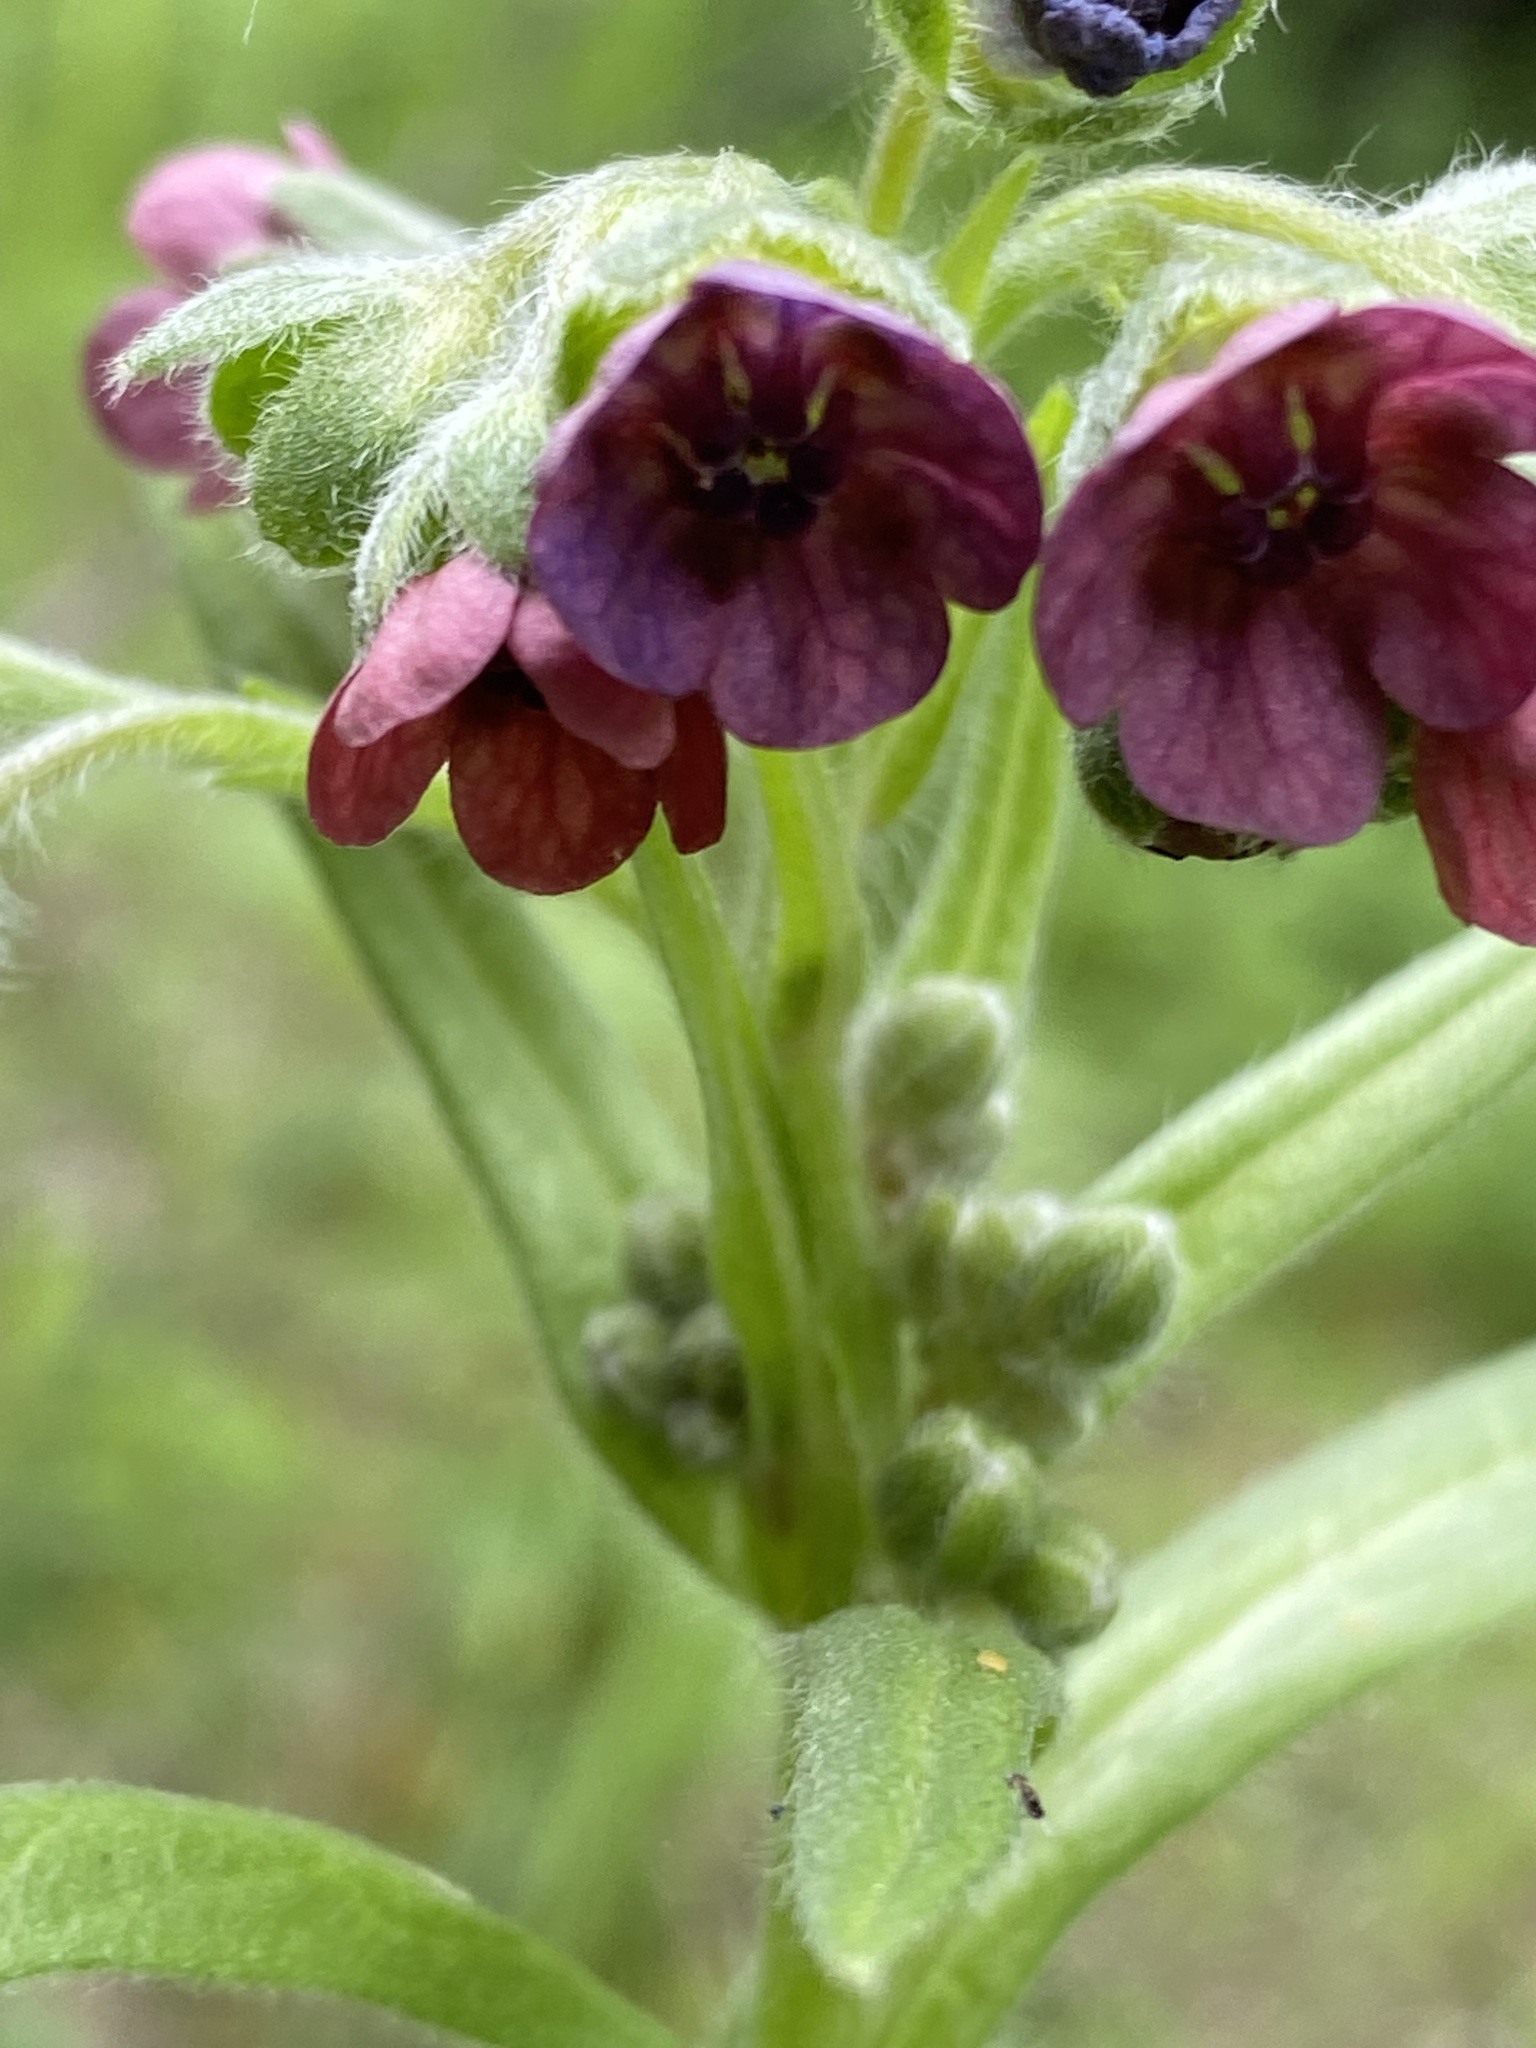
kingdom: Plantae
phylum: Tracheophyta
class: Magnoliopsida
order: Boraginales
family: Boraginaceae
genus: Cynoglossum
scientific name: Cynoglossum officinale
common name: Hound's-tongue
